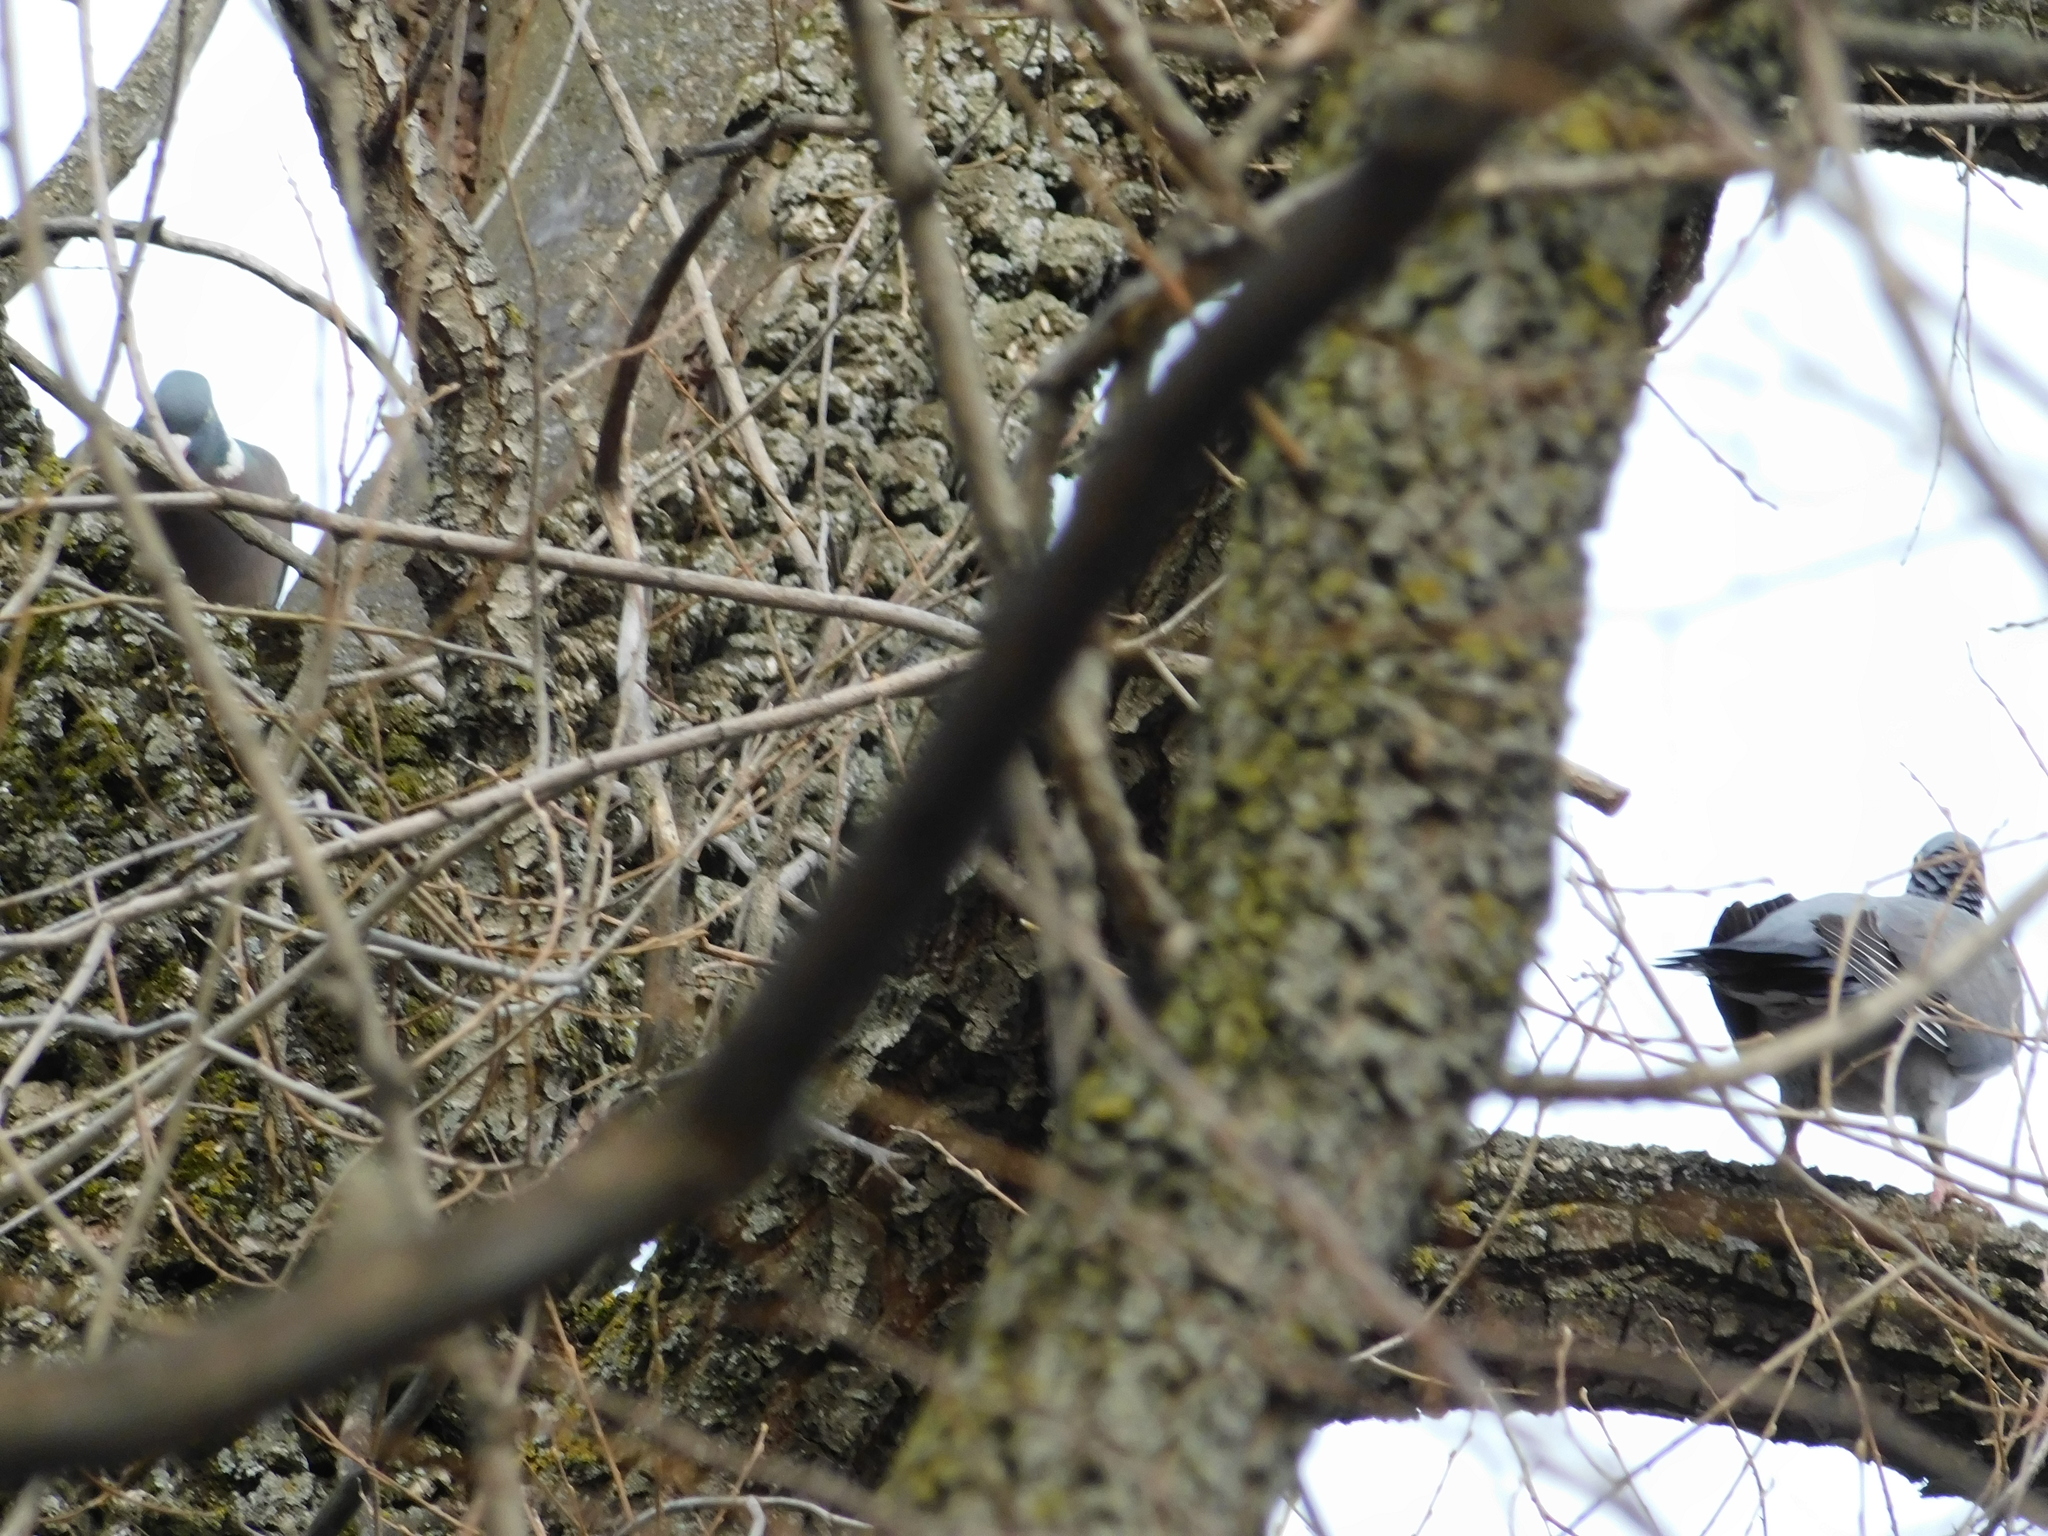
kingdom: Animalia
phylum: Chordata
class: Aves
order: Columbiformes
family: Columbidae
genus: Columba
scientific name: Columba palumbus
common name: Common wood pigeon
